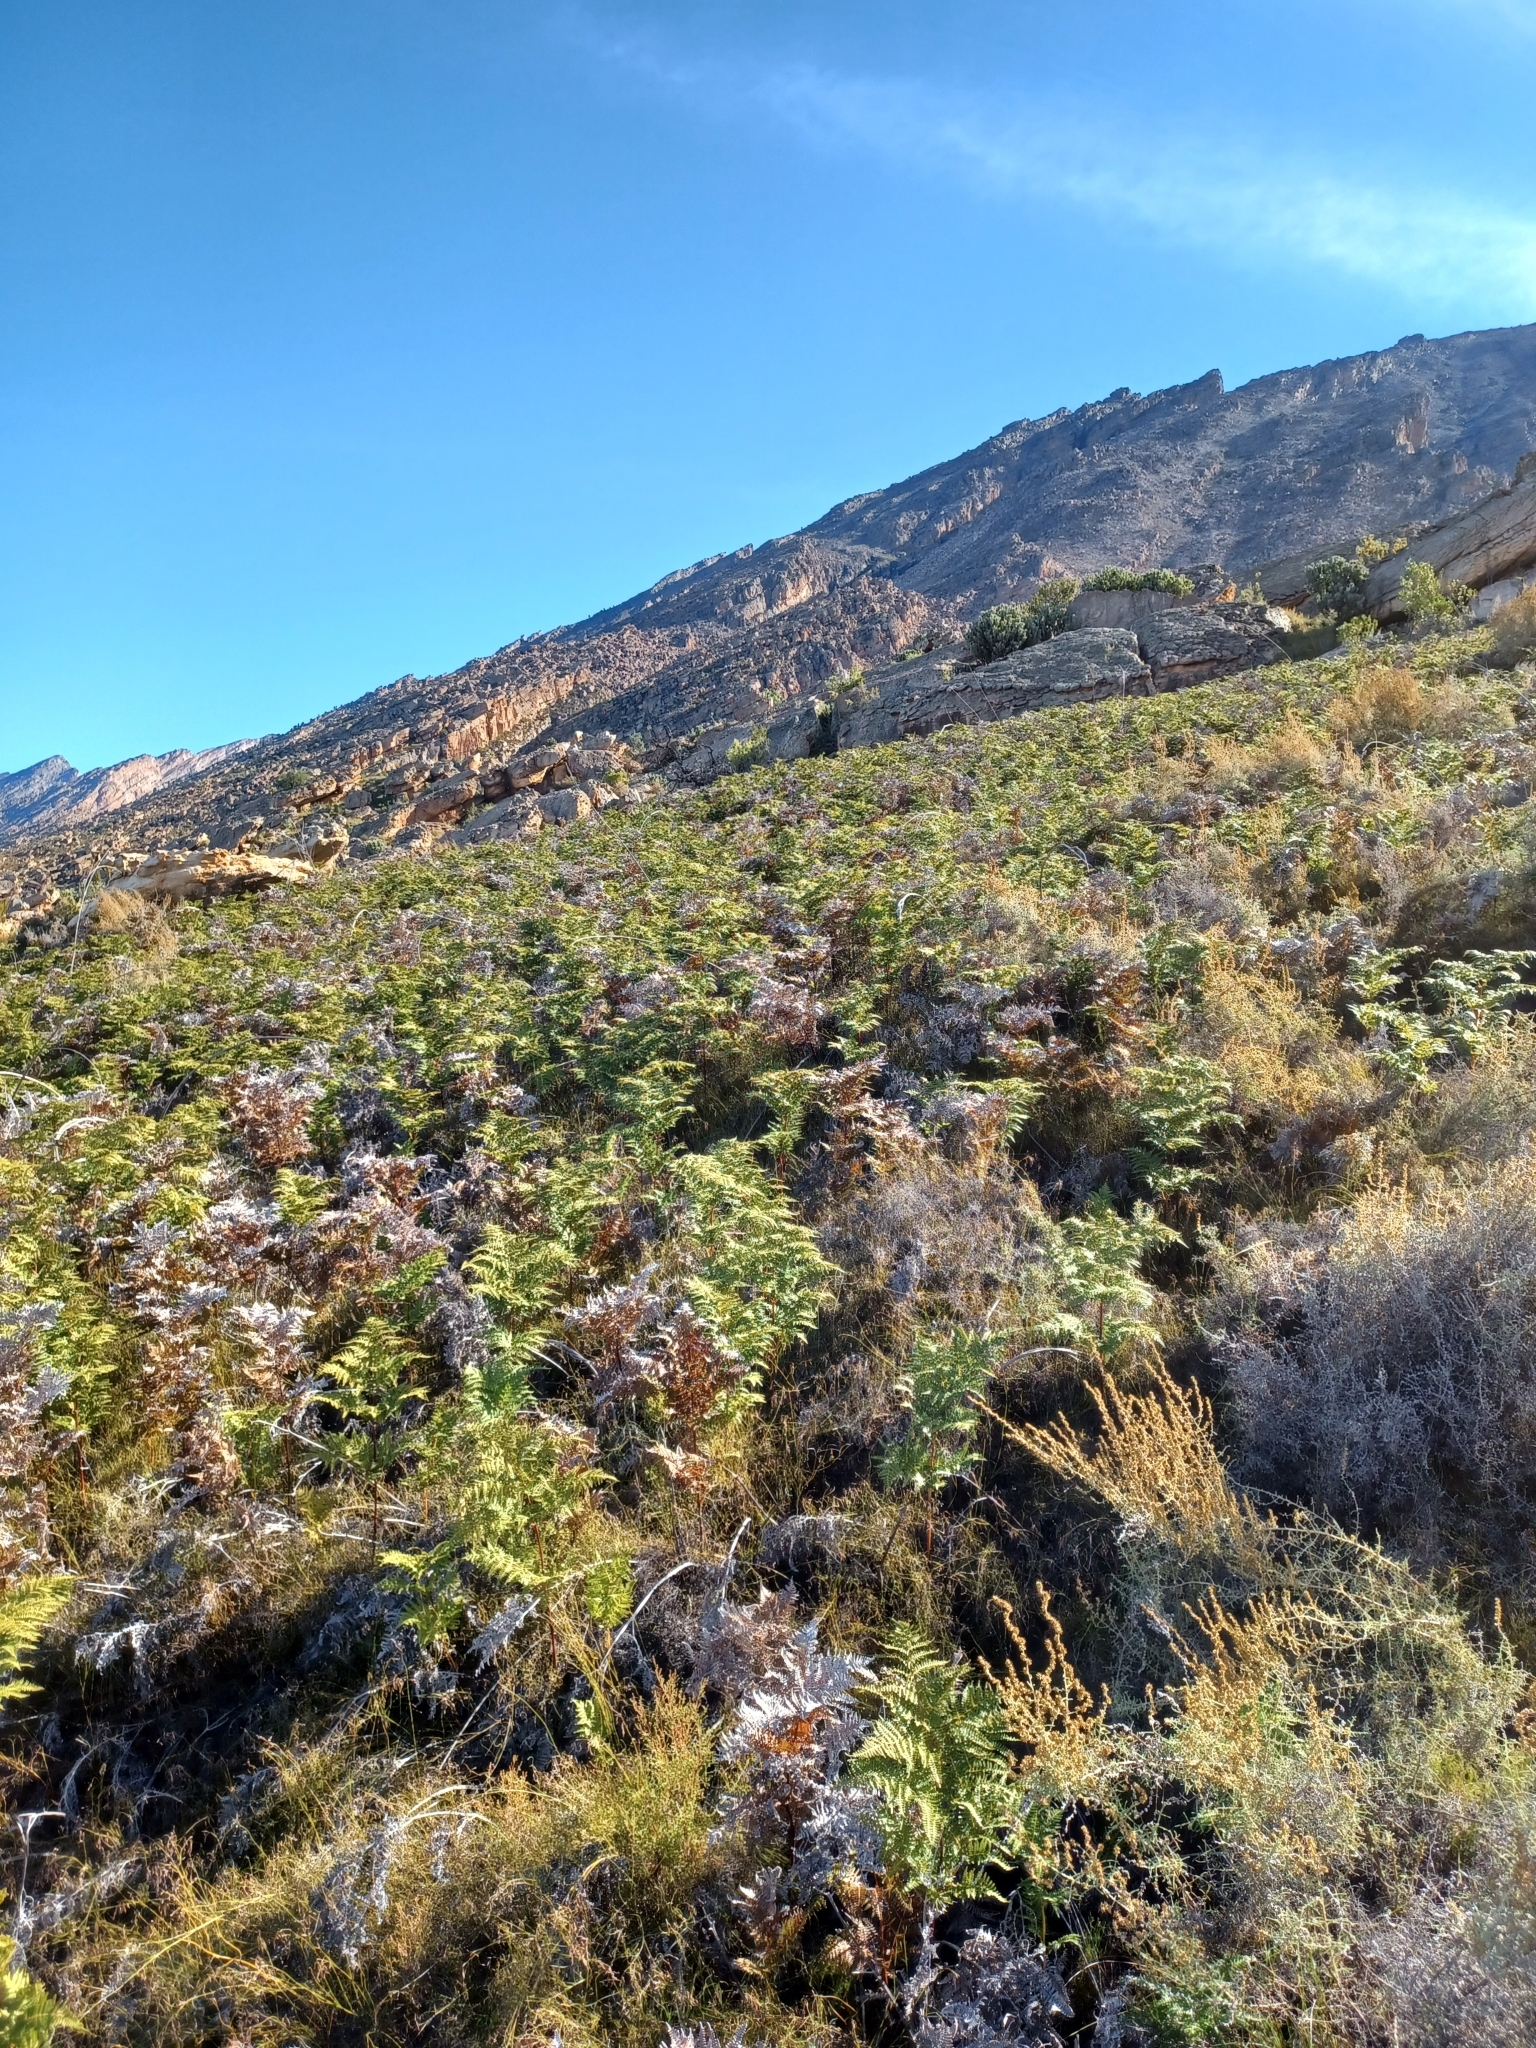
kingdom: Plantae
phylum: Tracheophyta
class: Polypodiopsida
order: Polypodiales
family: Dennstaedtiaceae
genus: Pteridium
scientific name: Pteridium aquilinum
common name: Bracken
